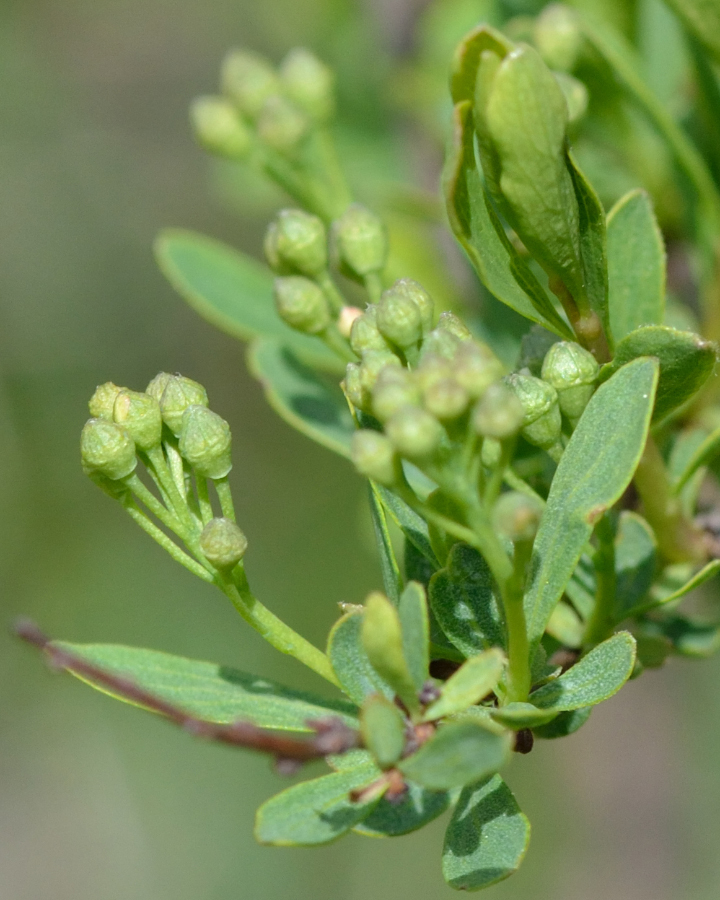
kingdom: Plantae
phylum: Tracheophyta
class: Magnoliopsida
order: Rosales
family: Rosaceae
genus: Spiraea
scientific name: Spiraea crenata
